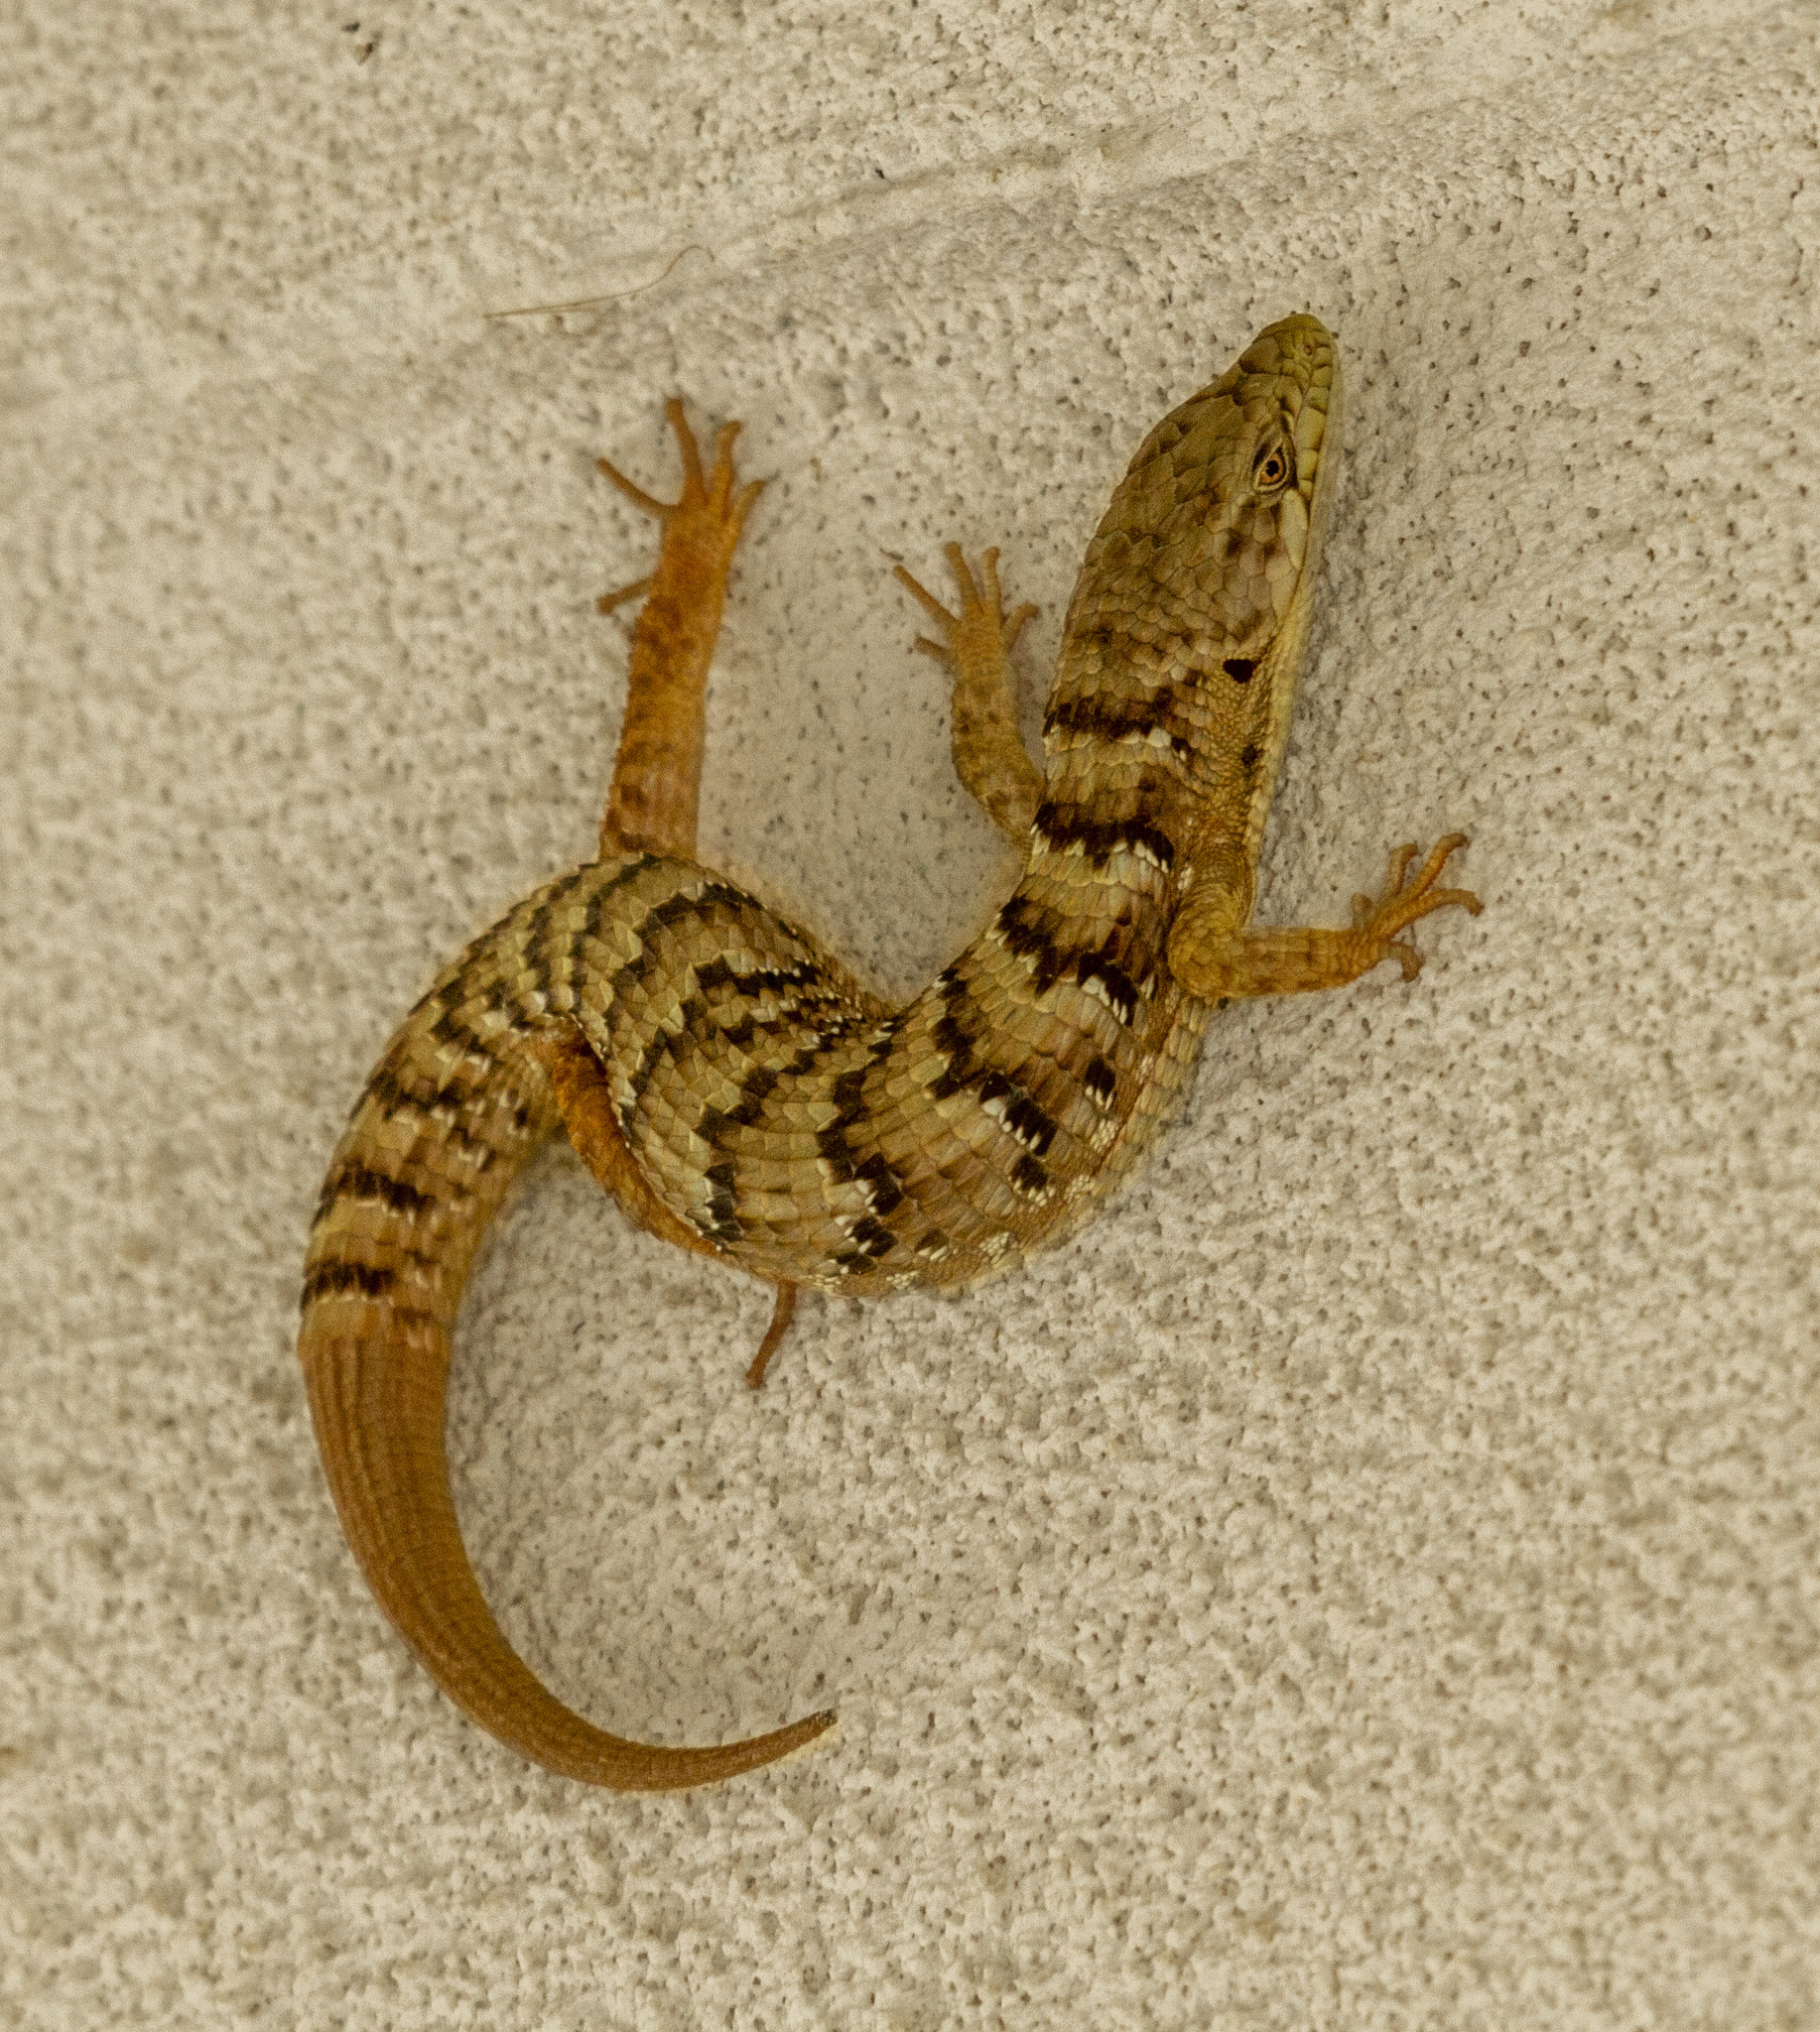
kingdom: Animalia
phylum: Chordata
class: Squamata
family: Anguidae
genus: Elgaria
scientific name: Elgaria multicarinata
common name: Southern alligator lizard
